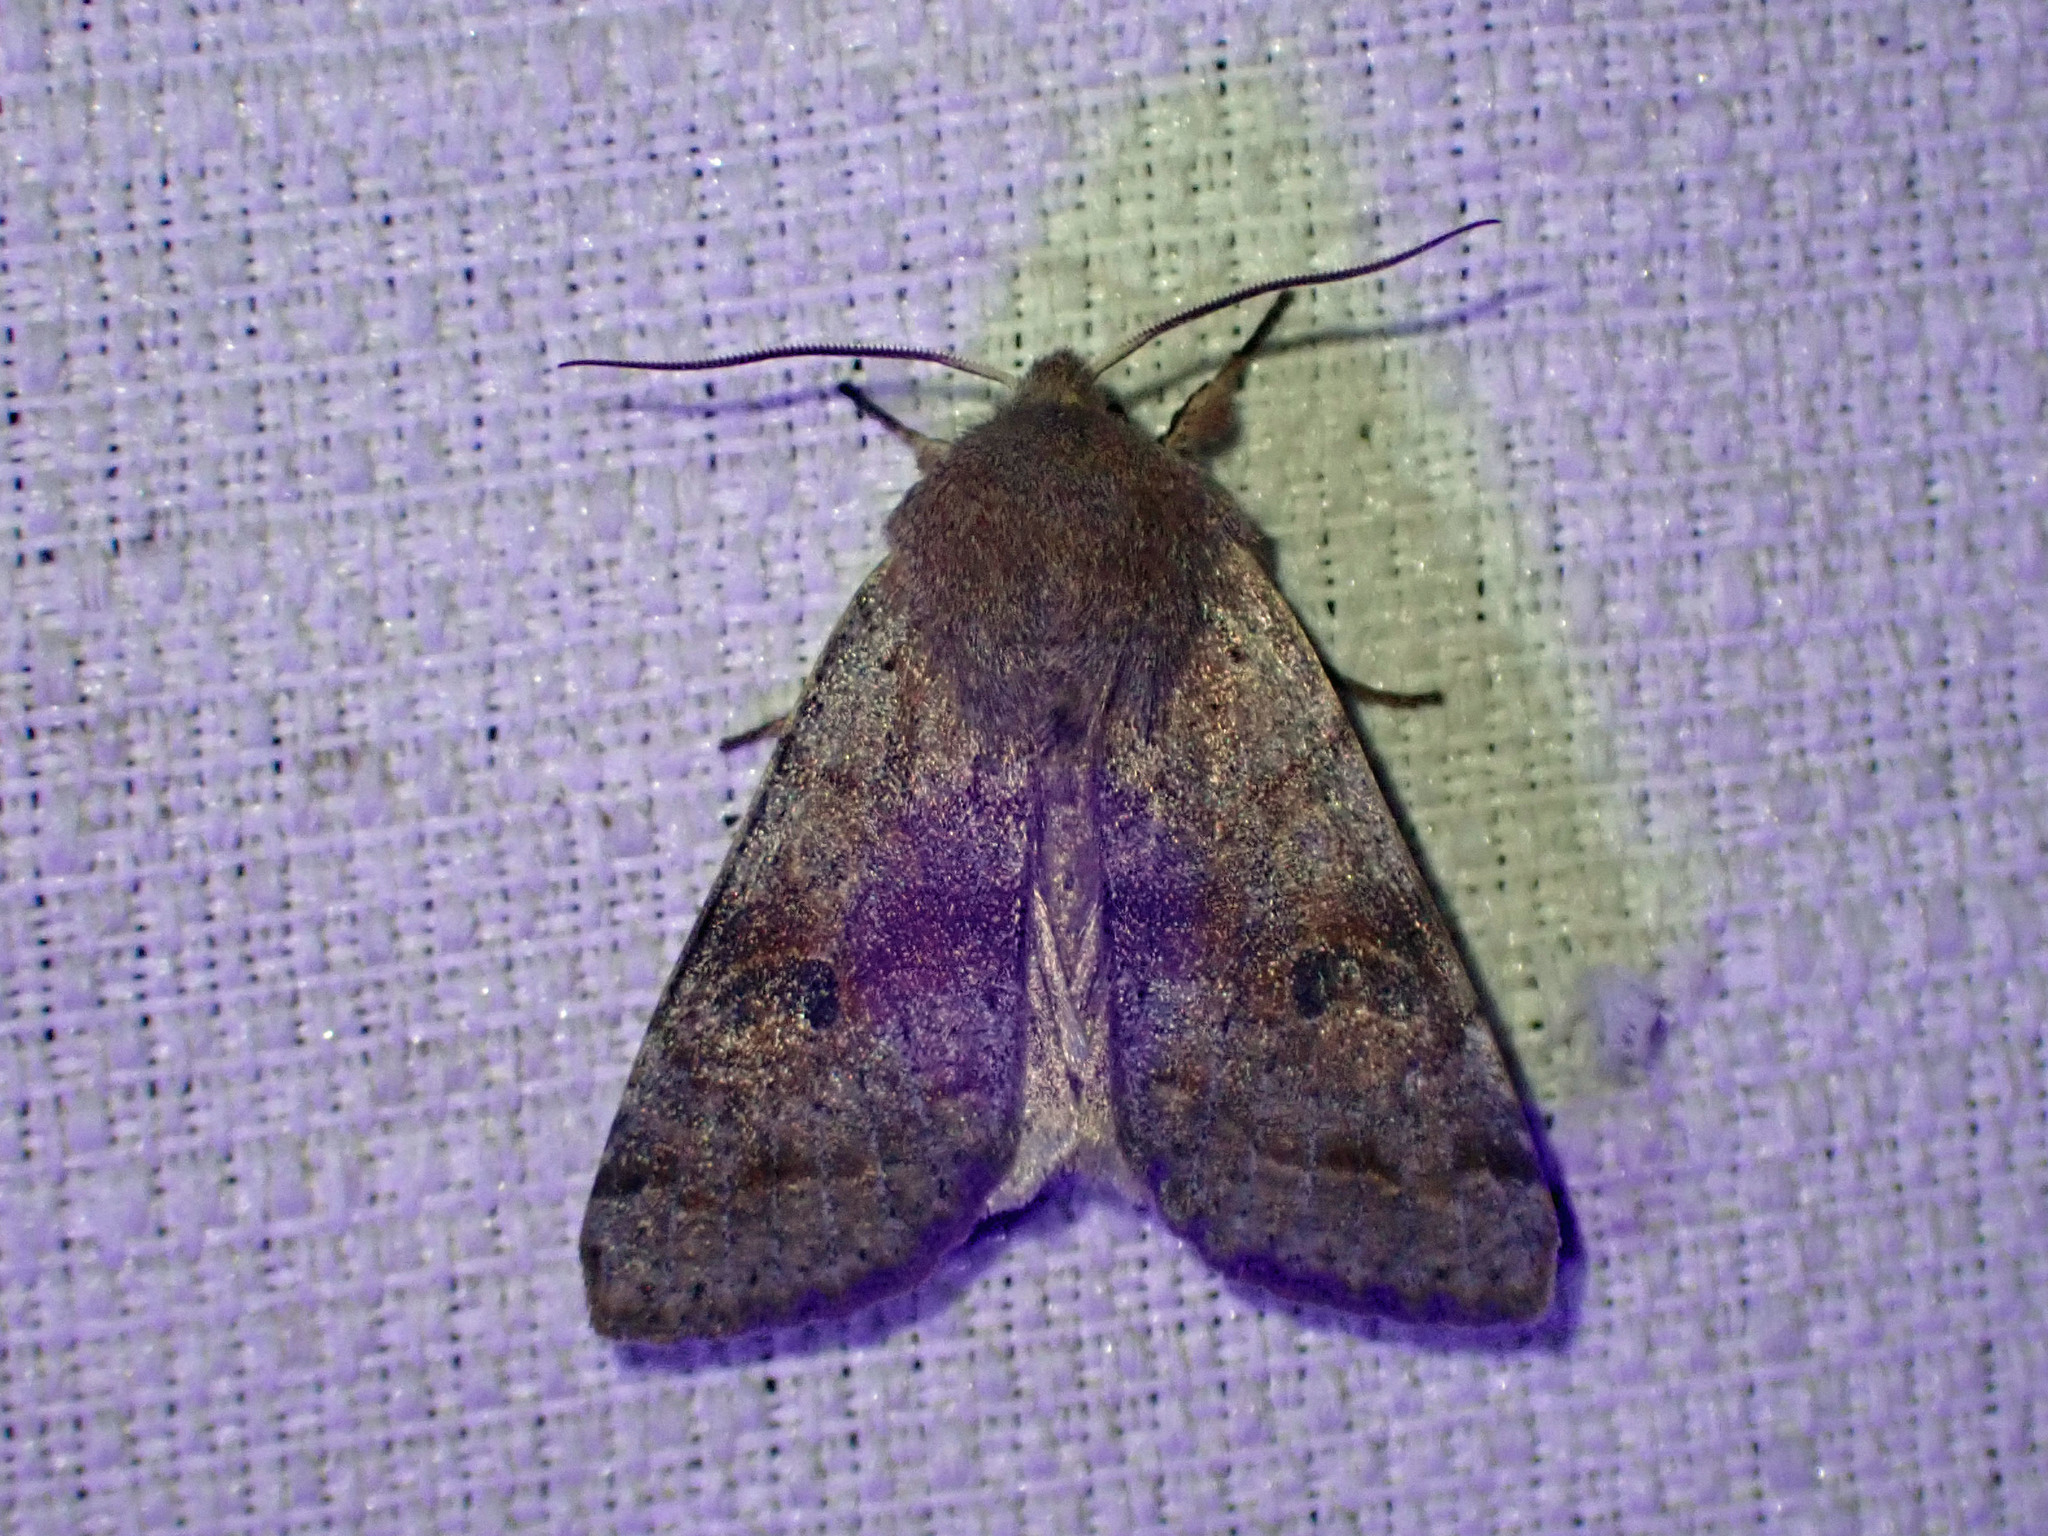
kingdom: Animalia
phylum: Arthropoda
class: Insecta
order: Lepidoptera
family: Noctuidae
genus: Orthosia
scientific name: Orthosia hibisci
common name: Green fruitworm
